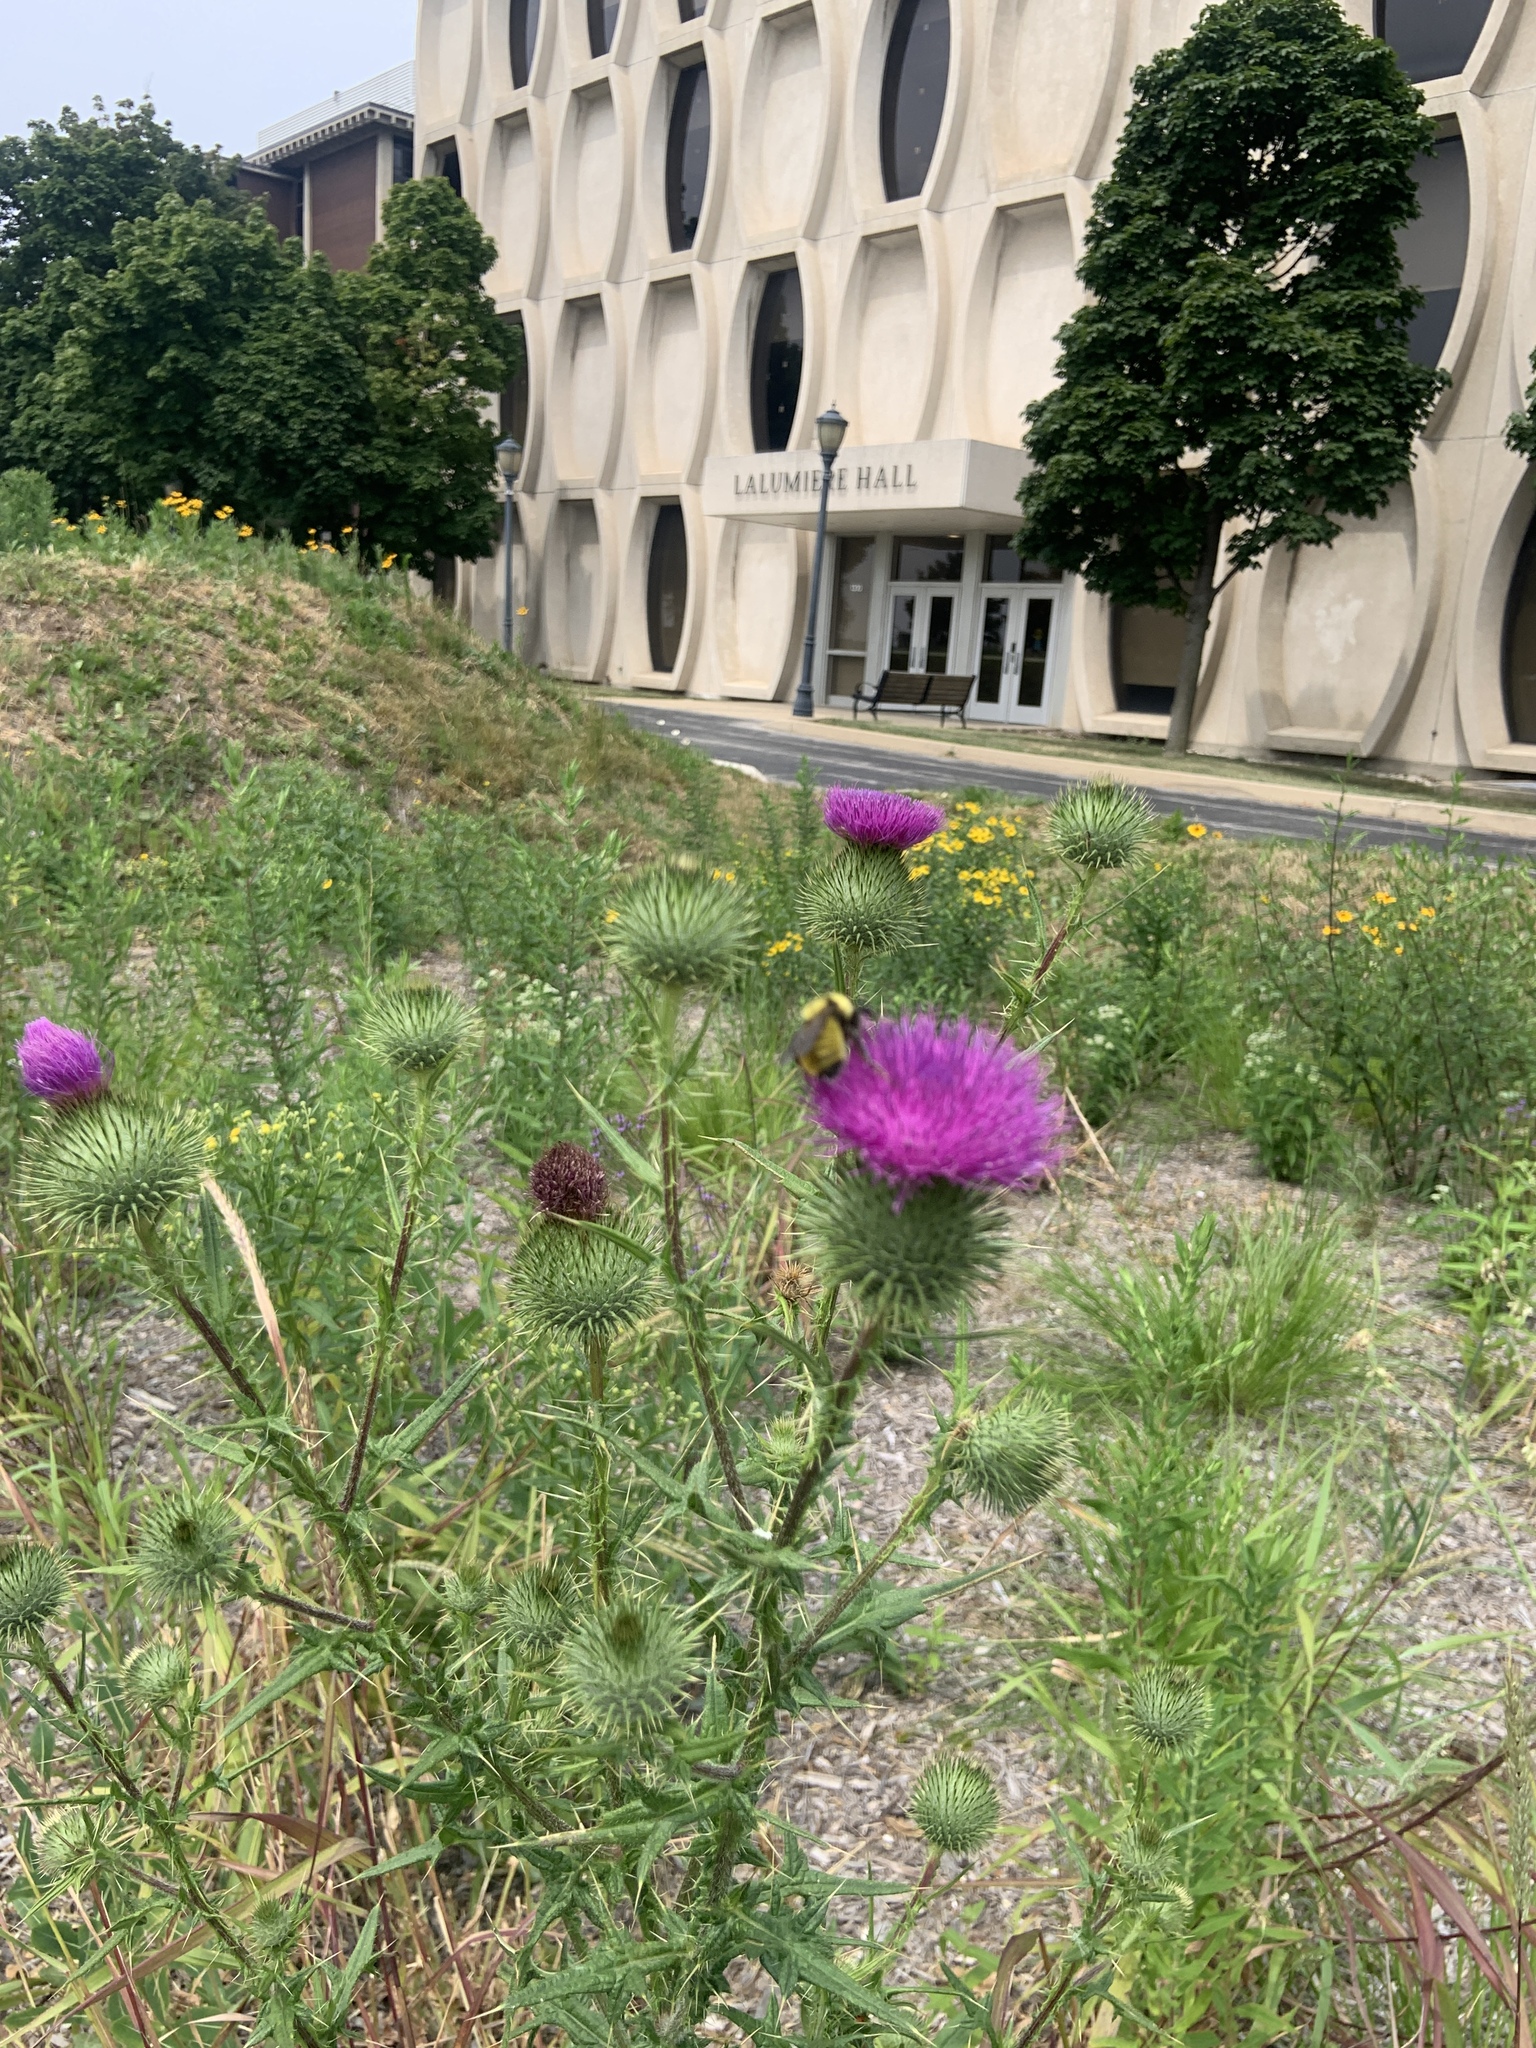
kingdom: Animalia
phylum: Arthropoda
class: Insecta
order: Hymenoptera
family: Apidae
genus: Bombus
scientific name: Bombus fervidus
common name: Yellow bumble bee
